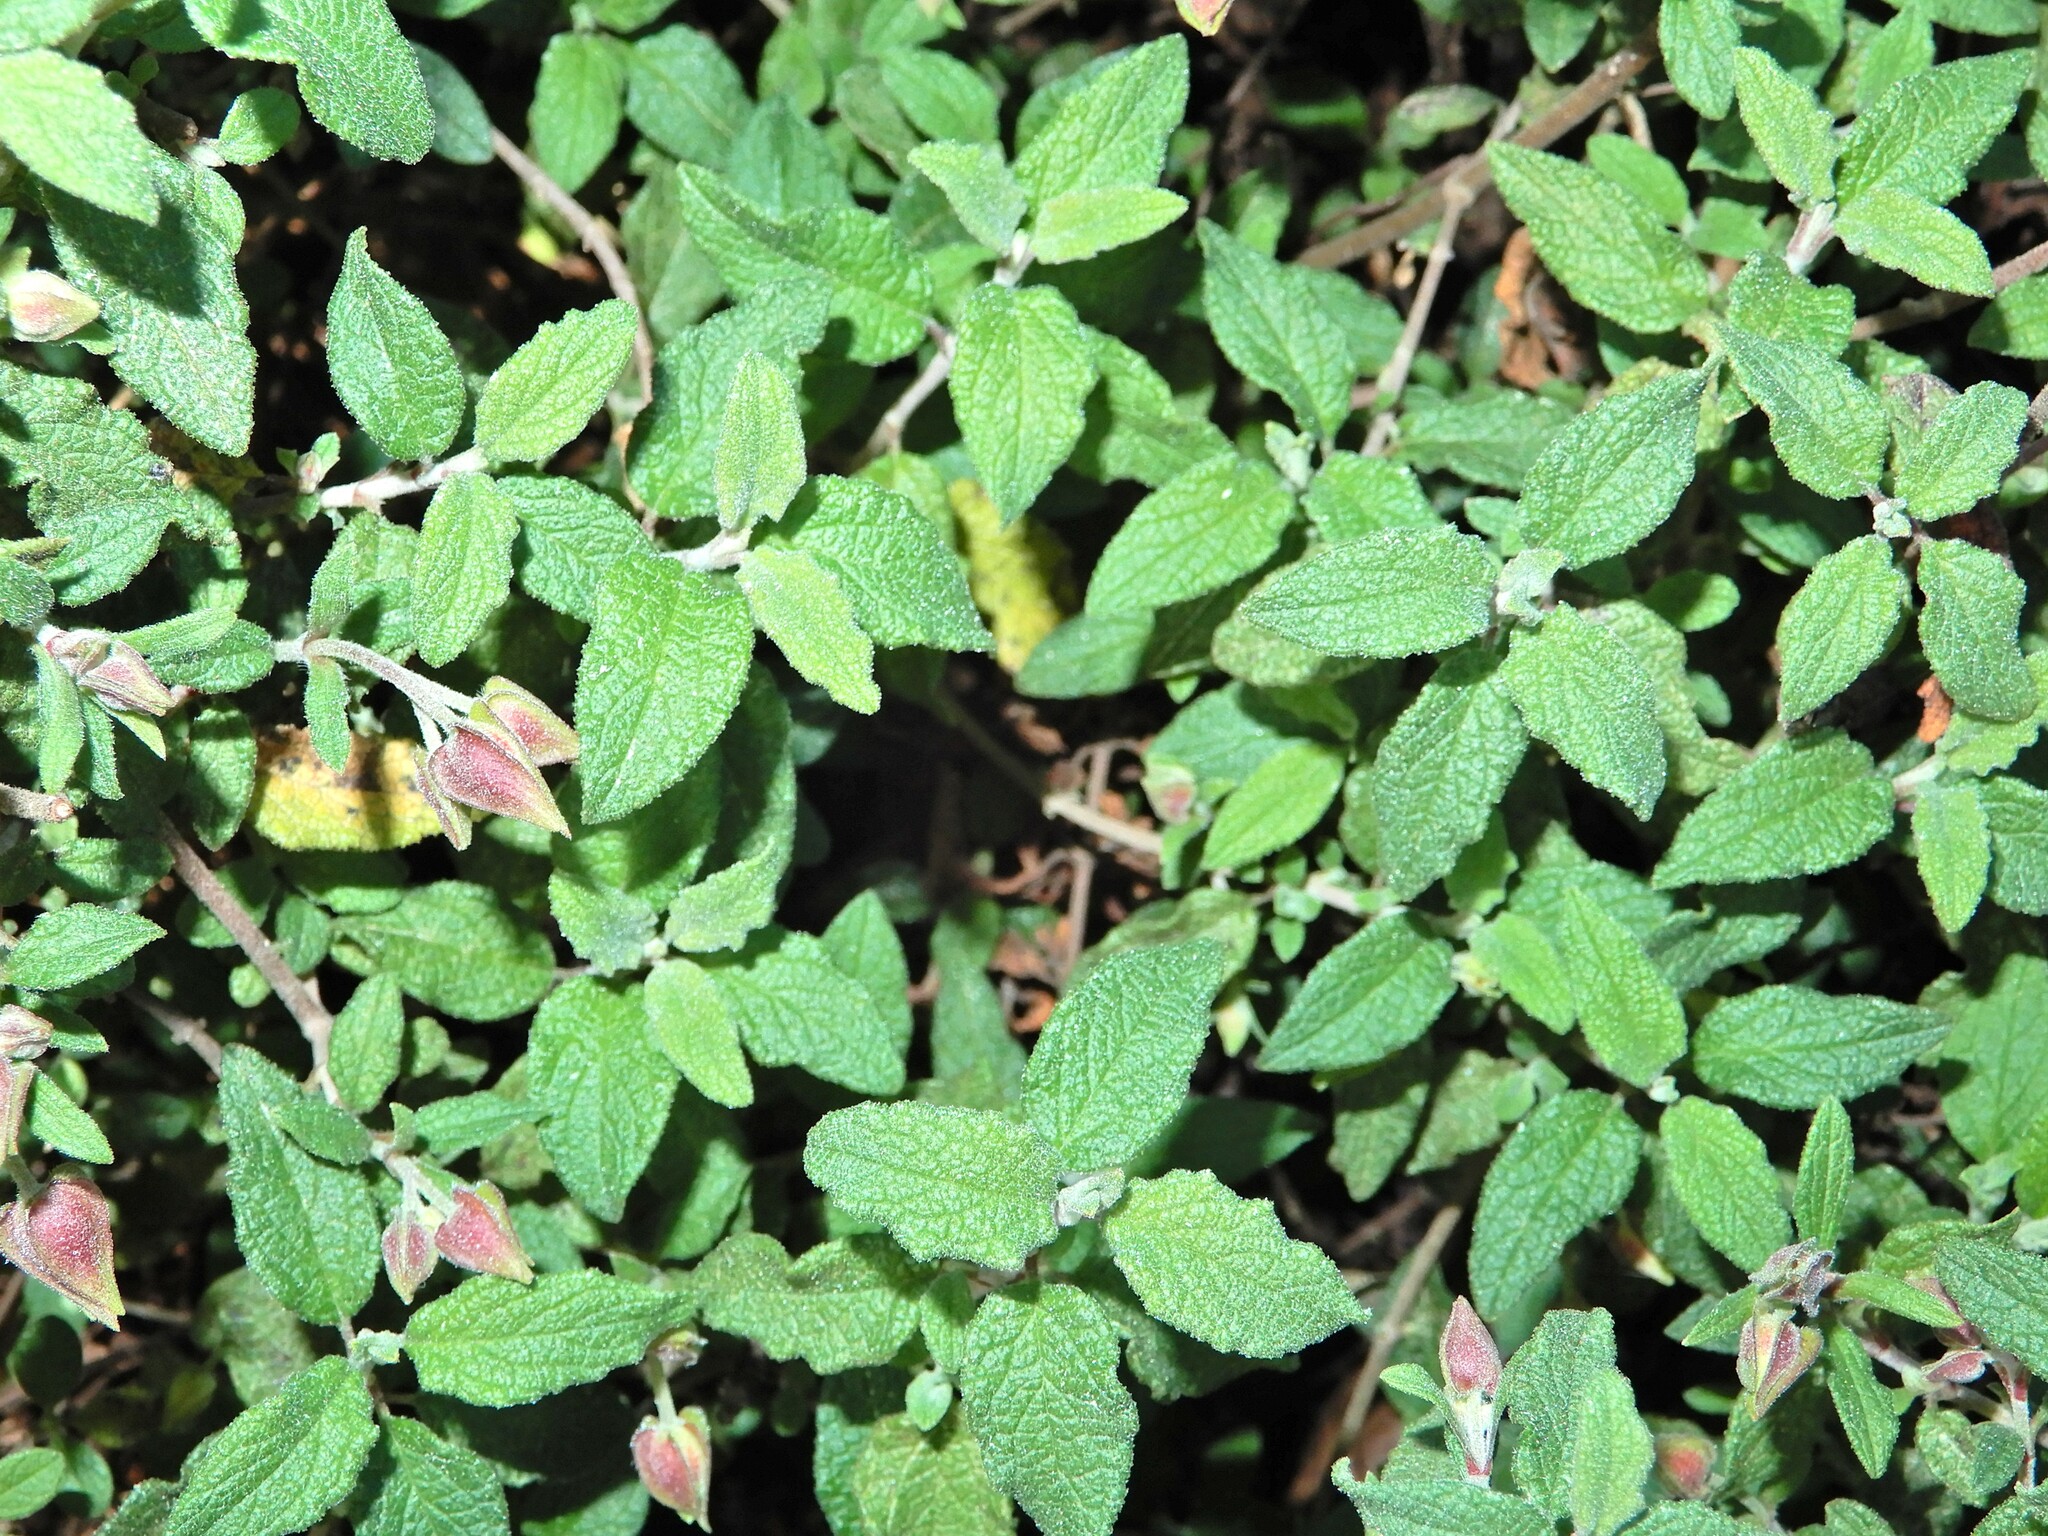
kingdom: Plantae
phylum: Tracheophyta
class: Magnoliopsida
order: Malvales
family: Cistaceae
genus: Cistus
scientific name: Cistus salviifolius
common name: Salvia cistus
